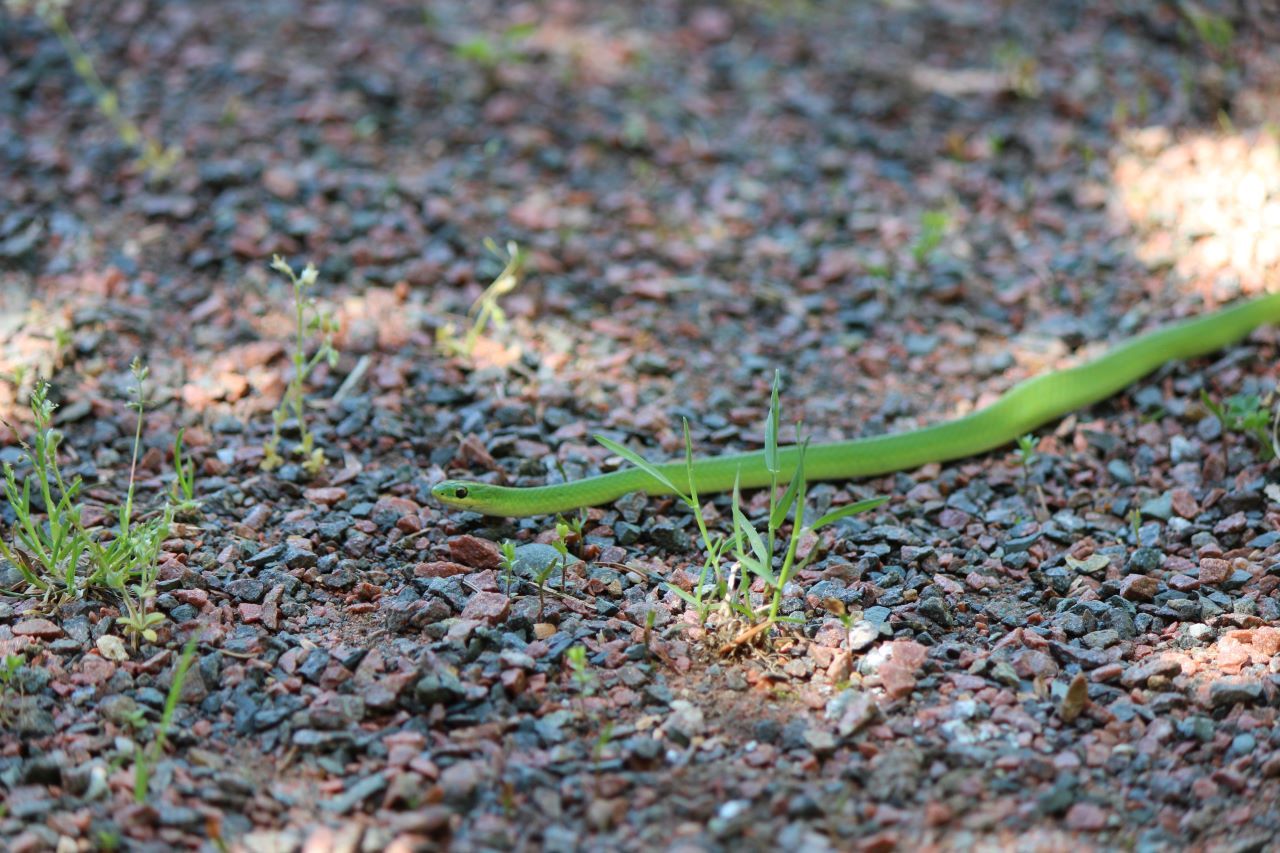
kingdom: Animalia
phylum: Chordata
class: Squamata
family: Colubridae
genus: Opheodrys
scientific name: Opheodrys vernalis
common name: Smooth green snake
